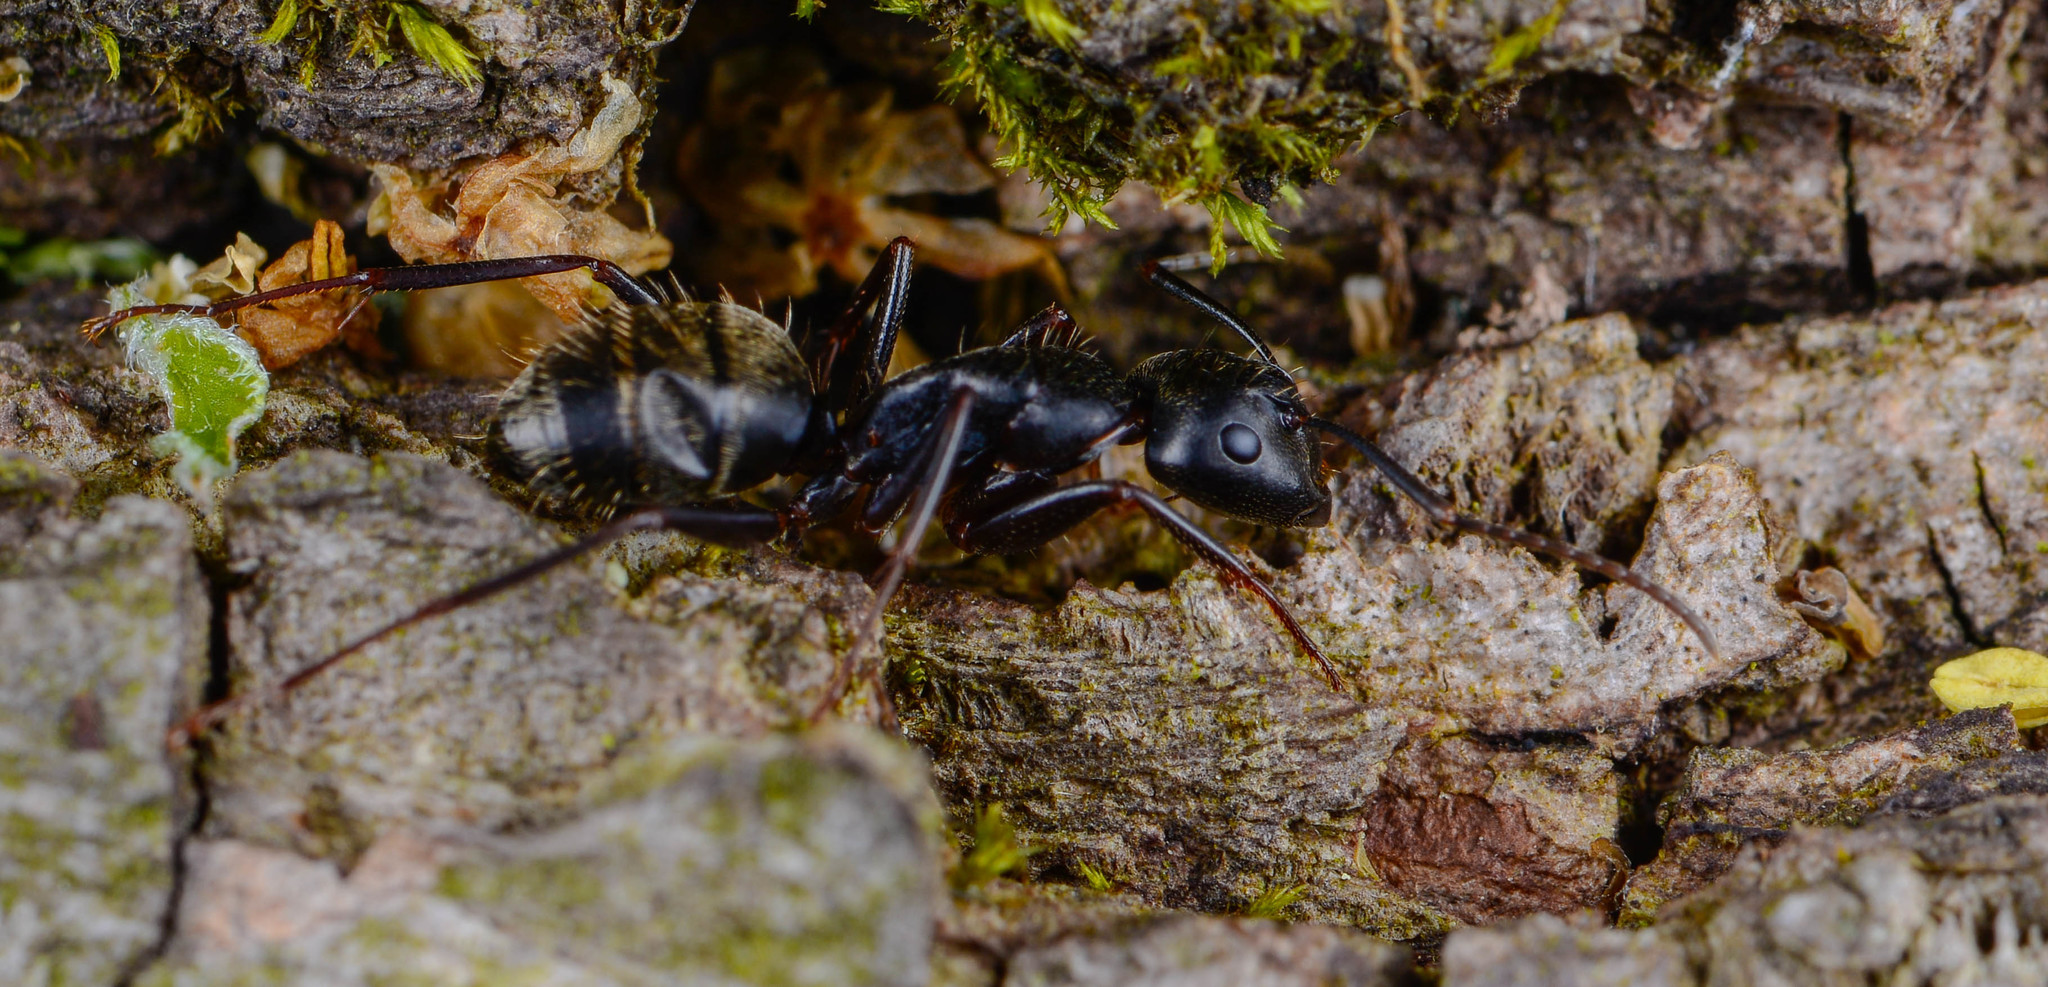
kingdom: Animalia
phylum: Arthropoda
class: Insecta
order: Hymenoptera
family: Formicidae
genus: Camponotus
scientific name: Camponotus pennsylvanicus
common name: Black carpenter ant
